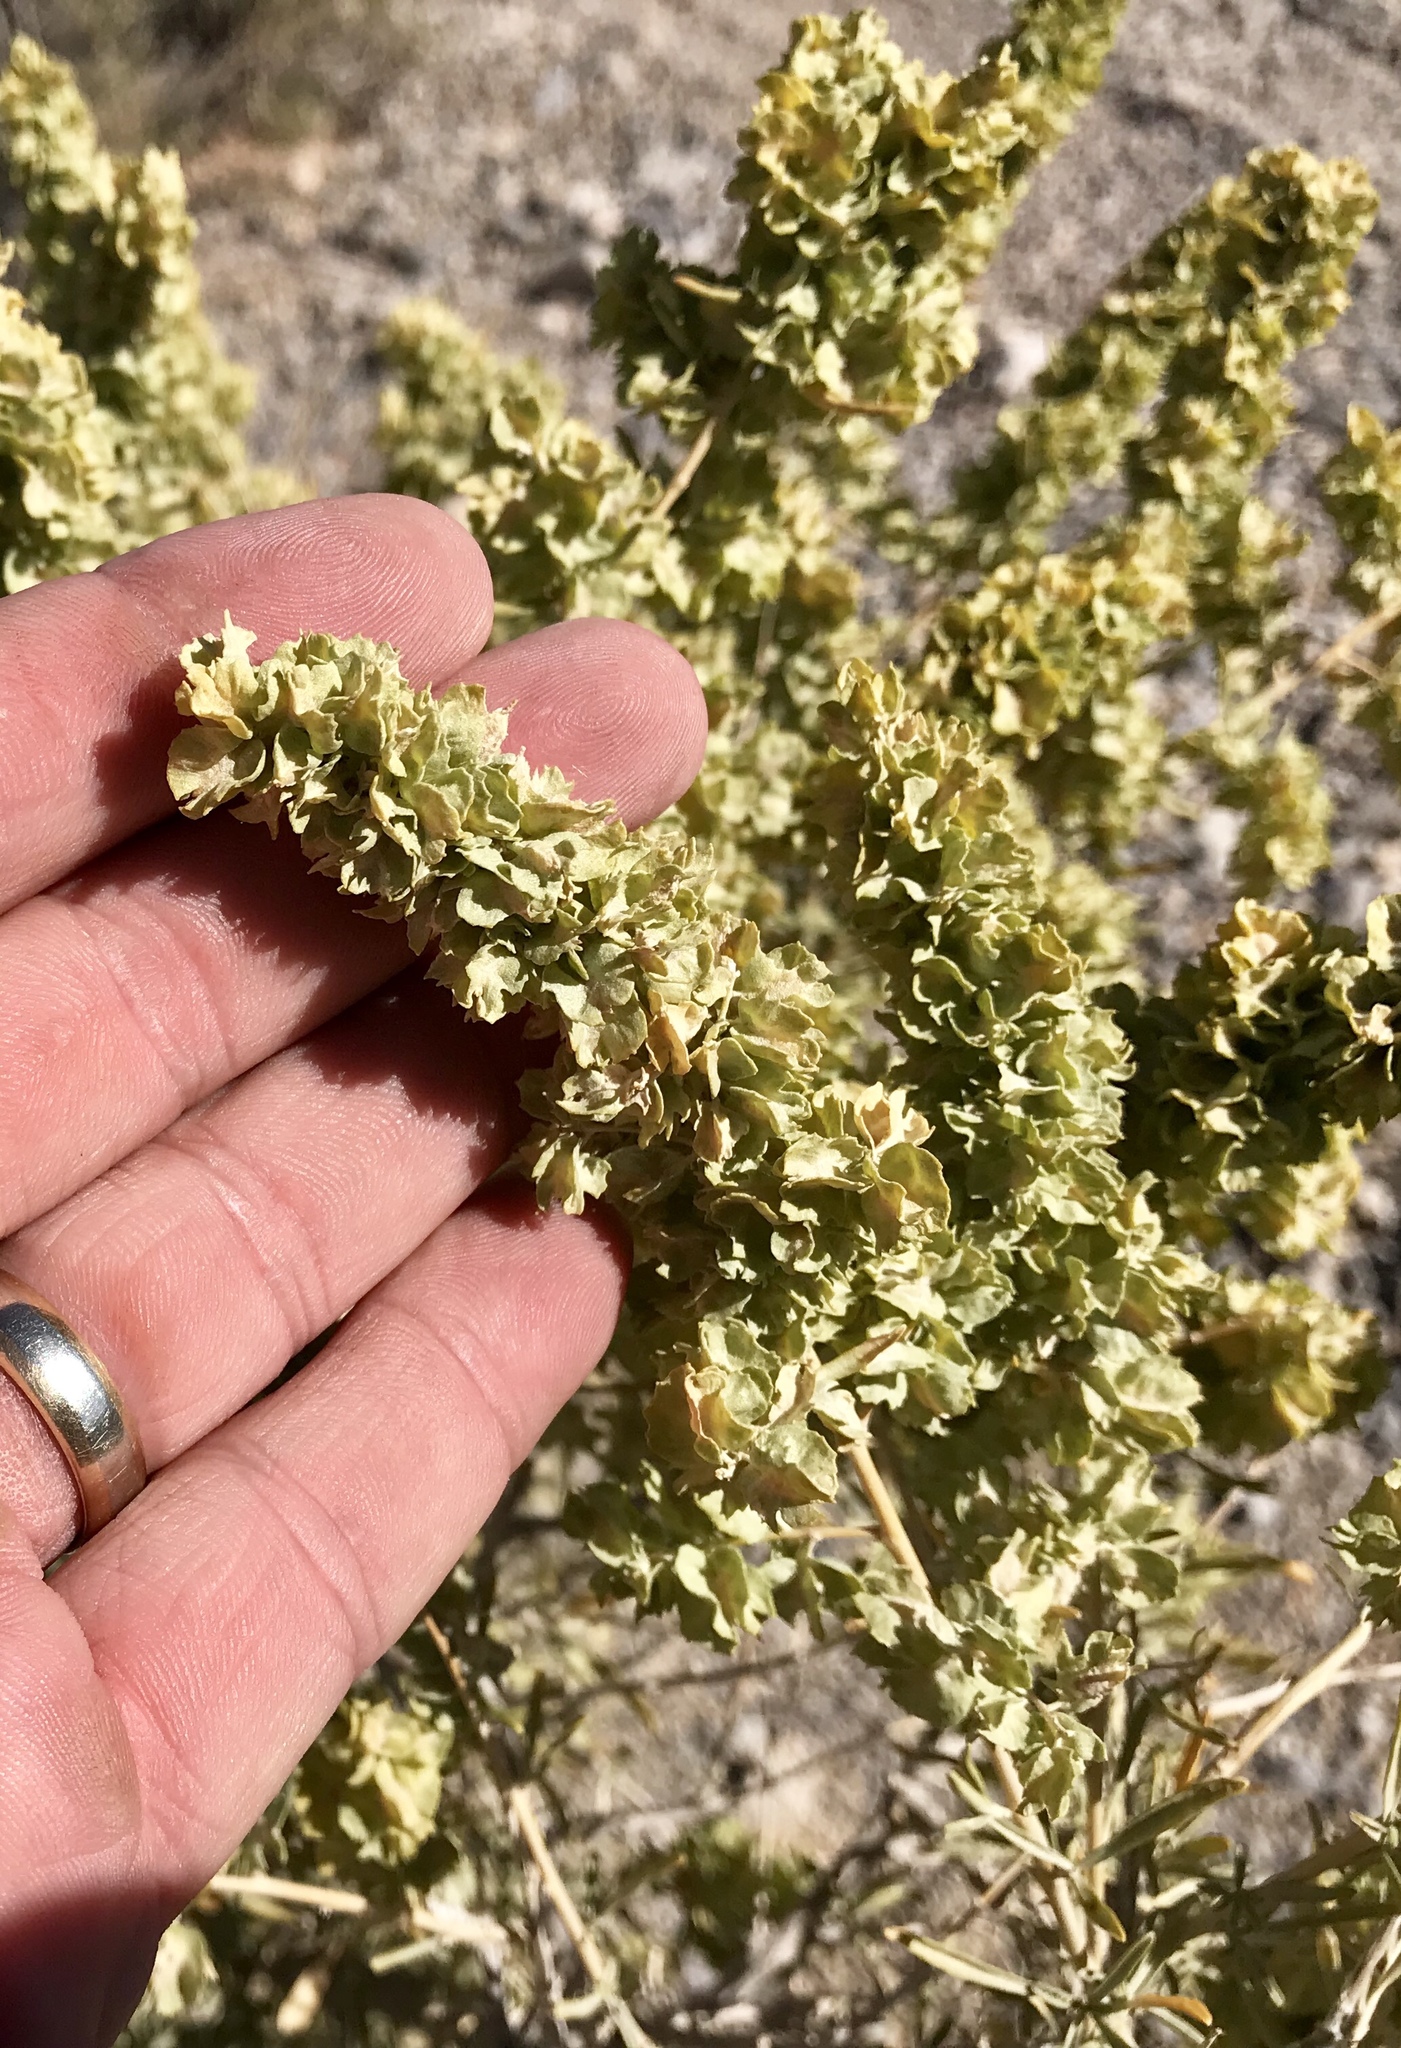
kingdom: Plantae
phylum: Tracheophyta
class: Magnoliopsida
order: Caryophyllales
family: Amaranthaceae
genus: Atriplex
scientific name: Atriplex canescens
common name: Four-wing saltbush
